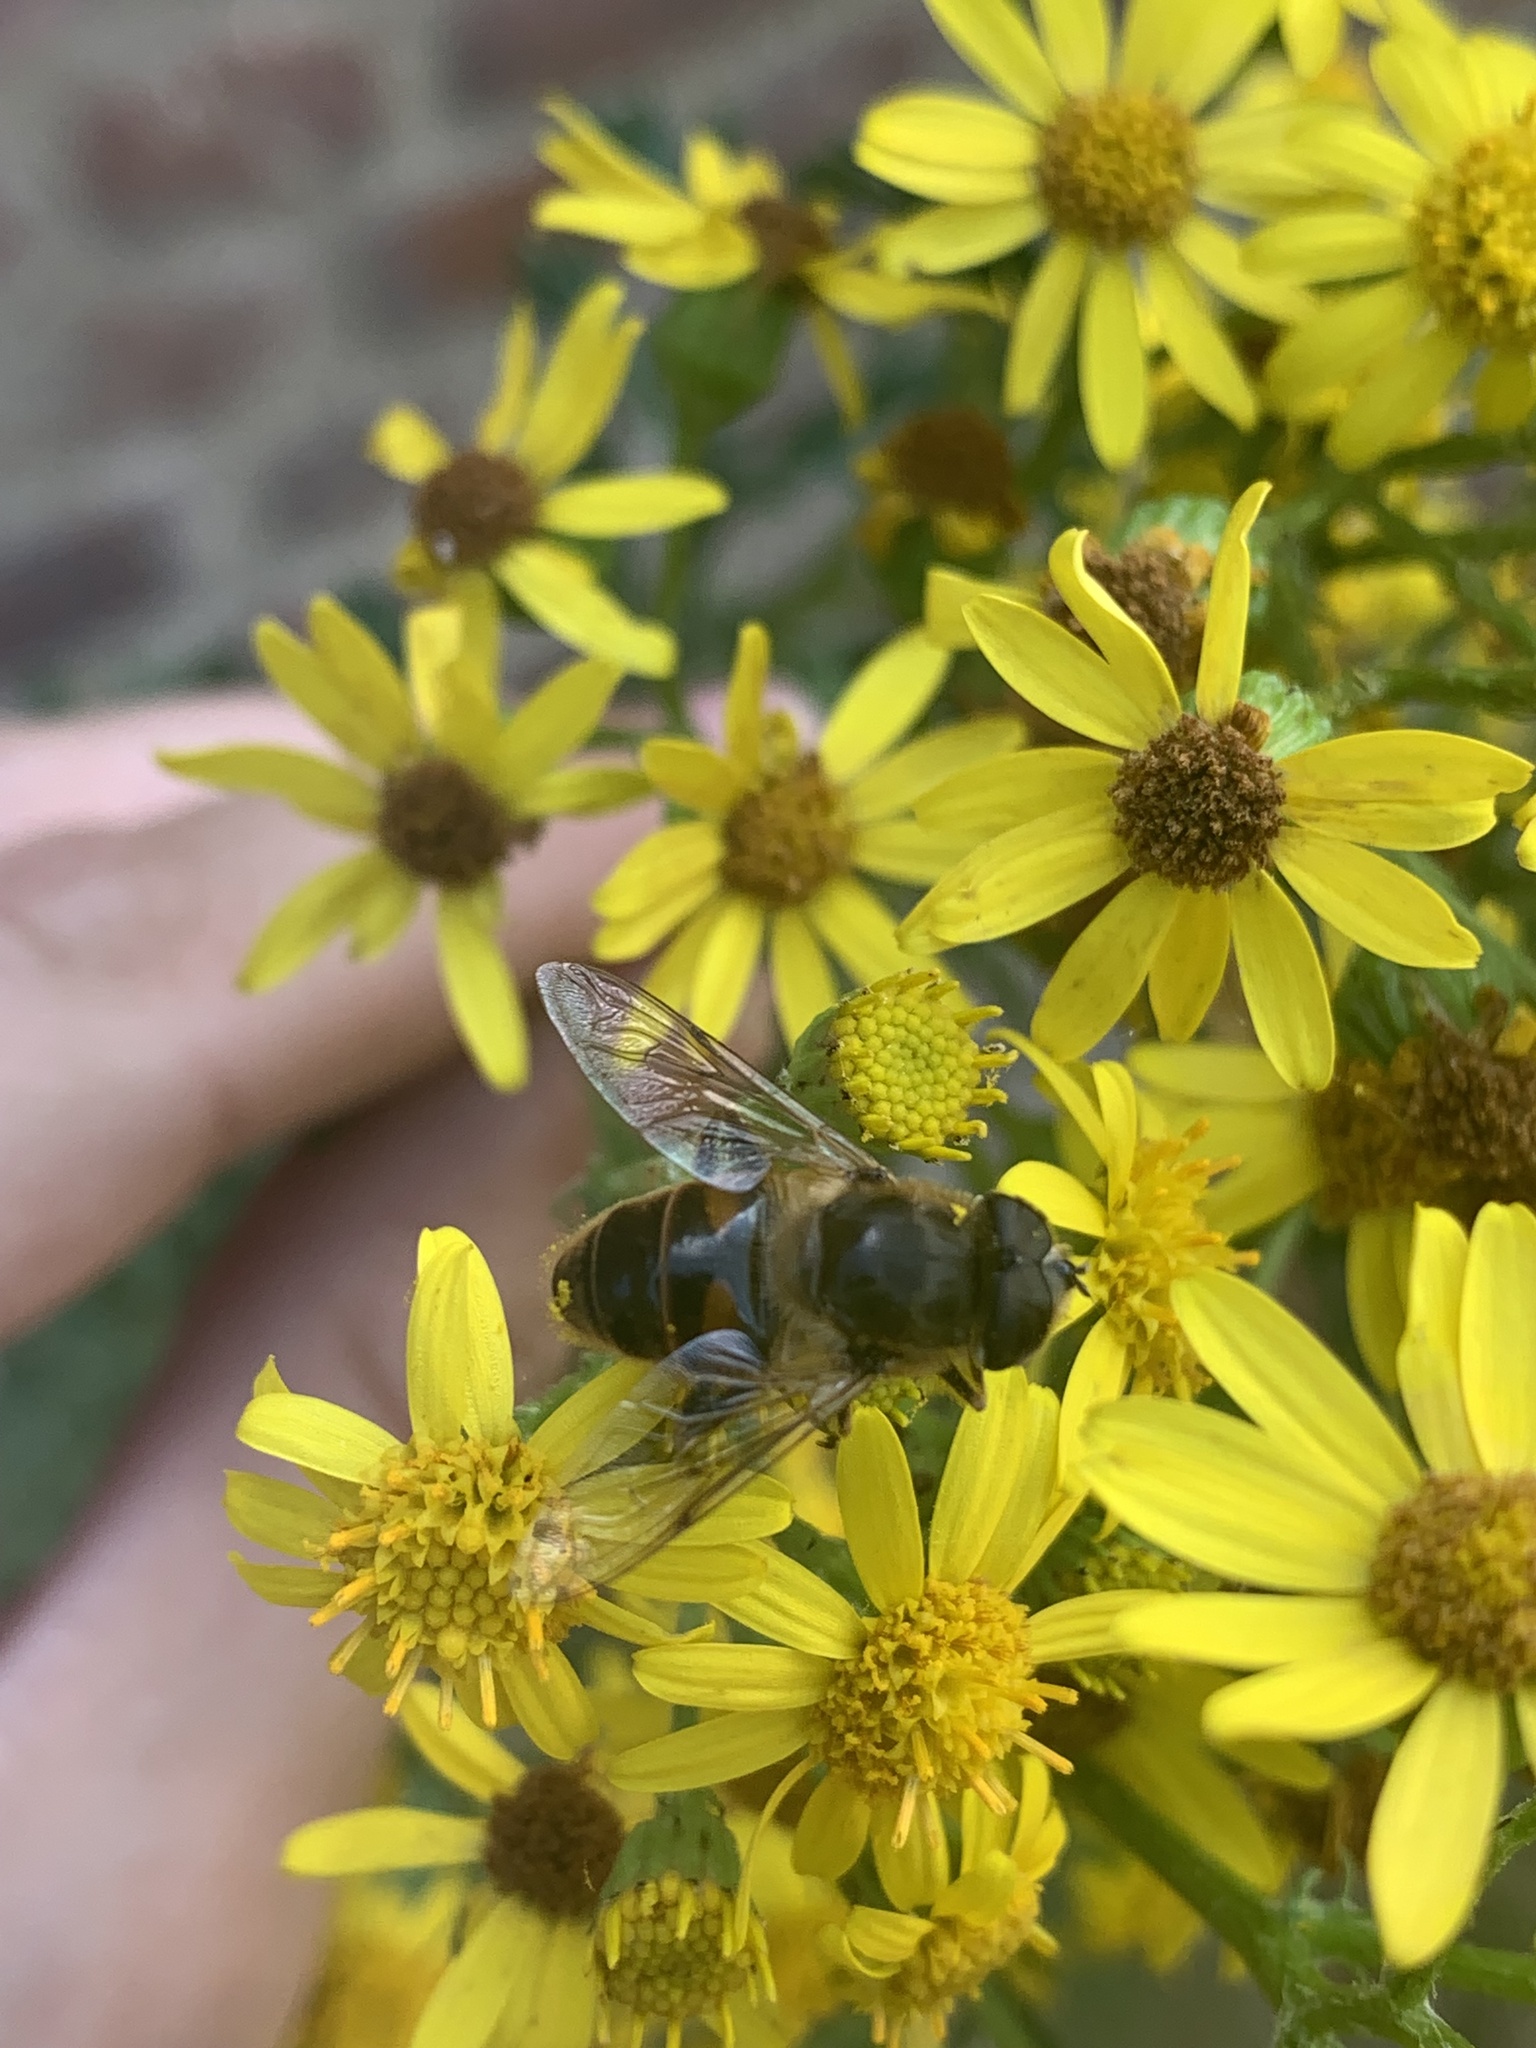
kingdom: Animalia
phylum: Arthropoda
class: Insecta
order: Diptera
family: Syrphidae
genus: Eristalis
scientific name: Eristalis tenax
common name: Drone fly
